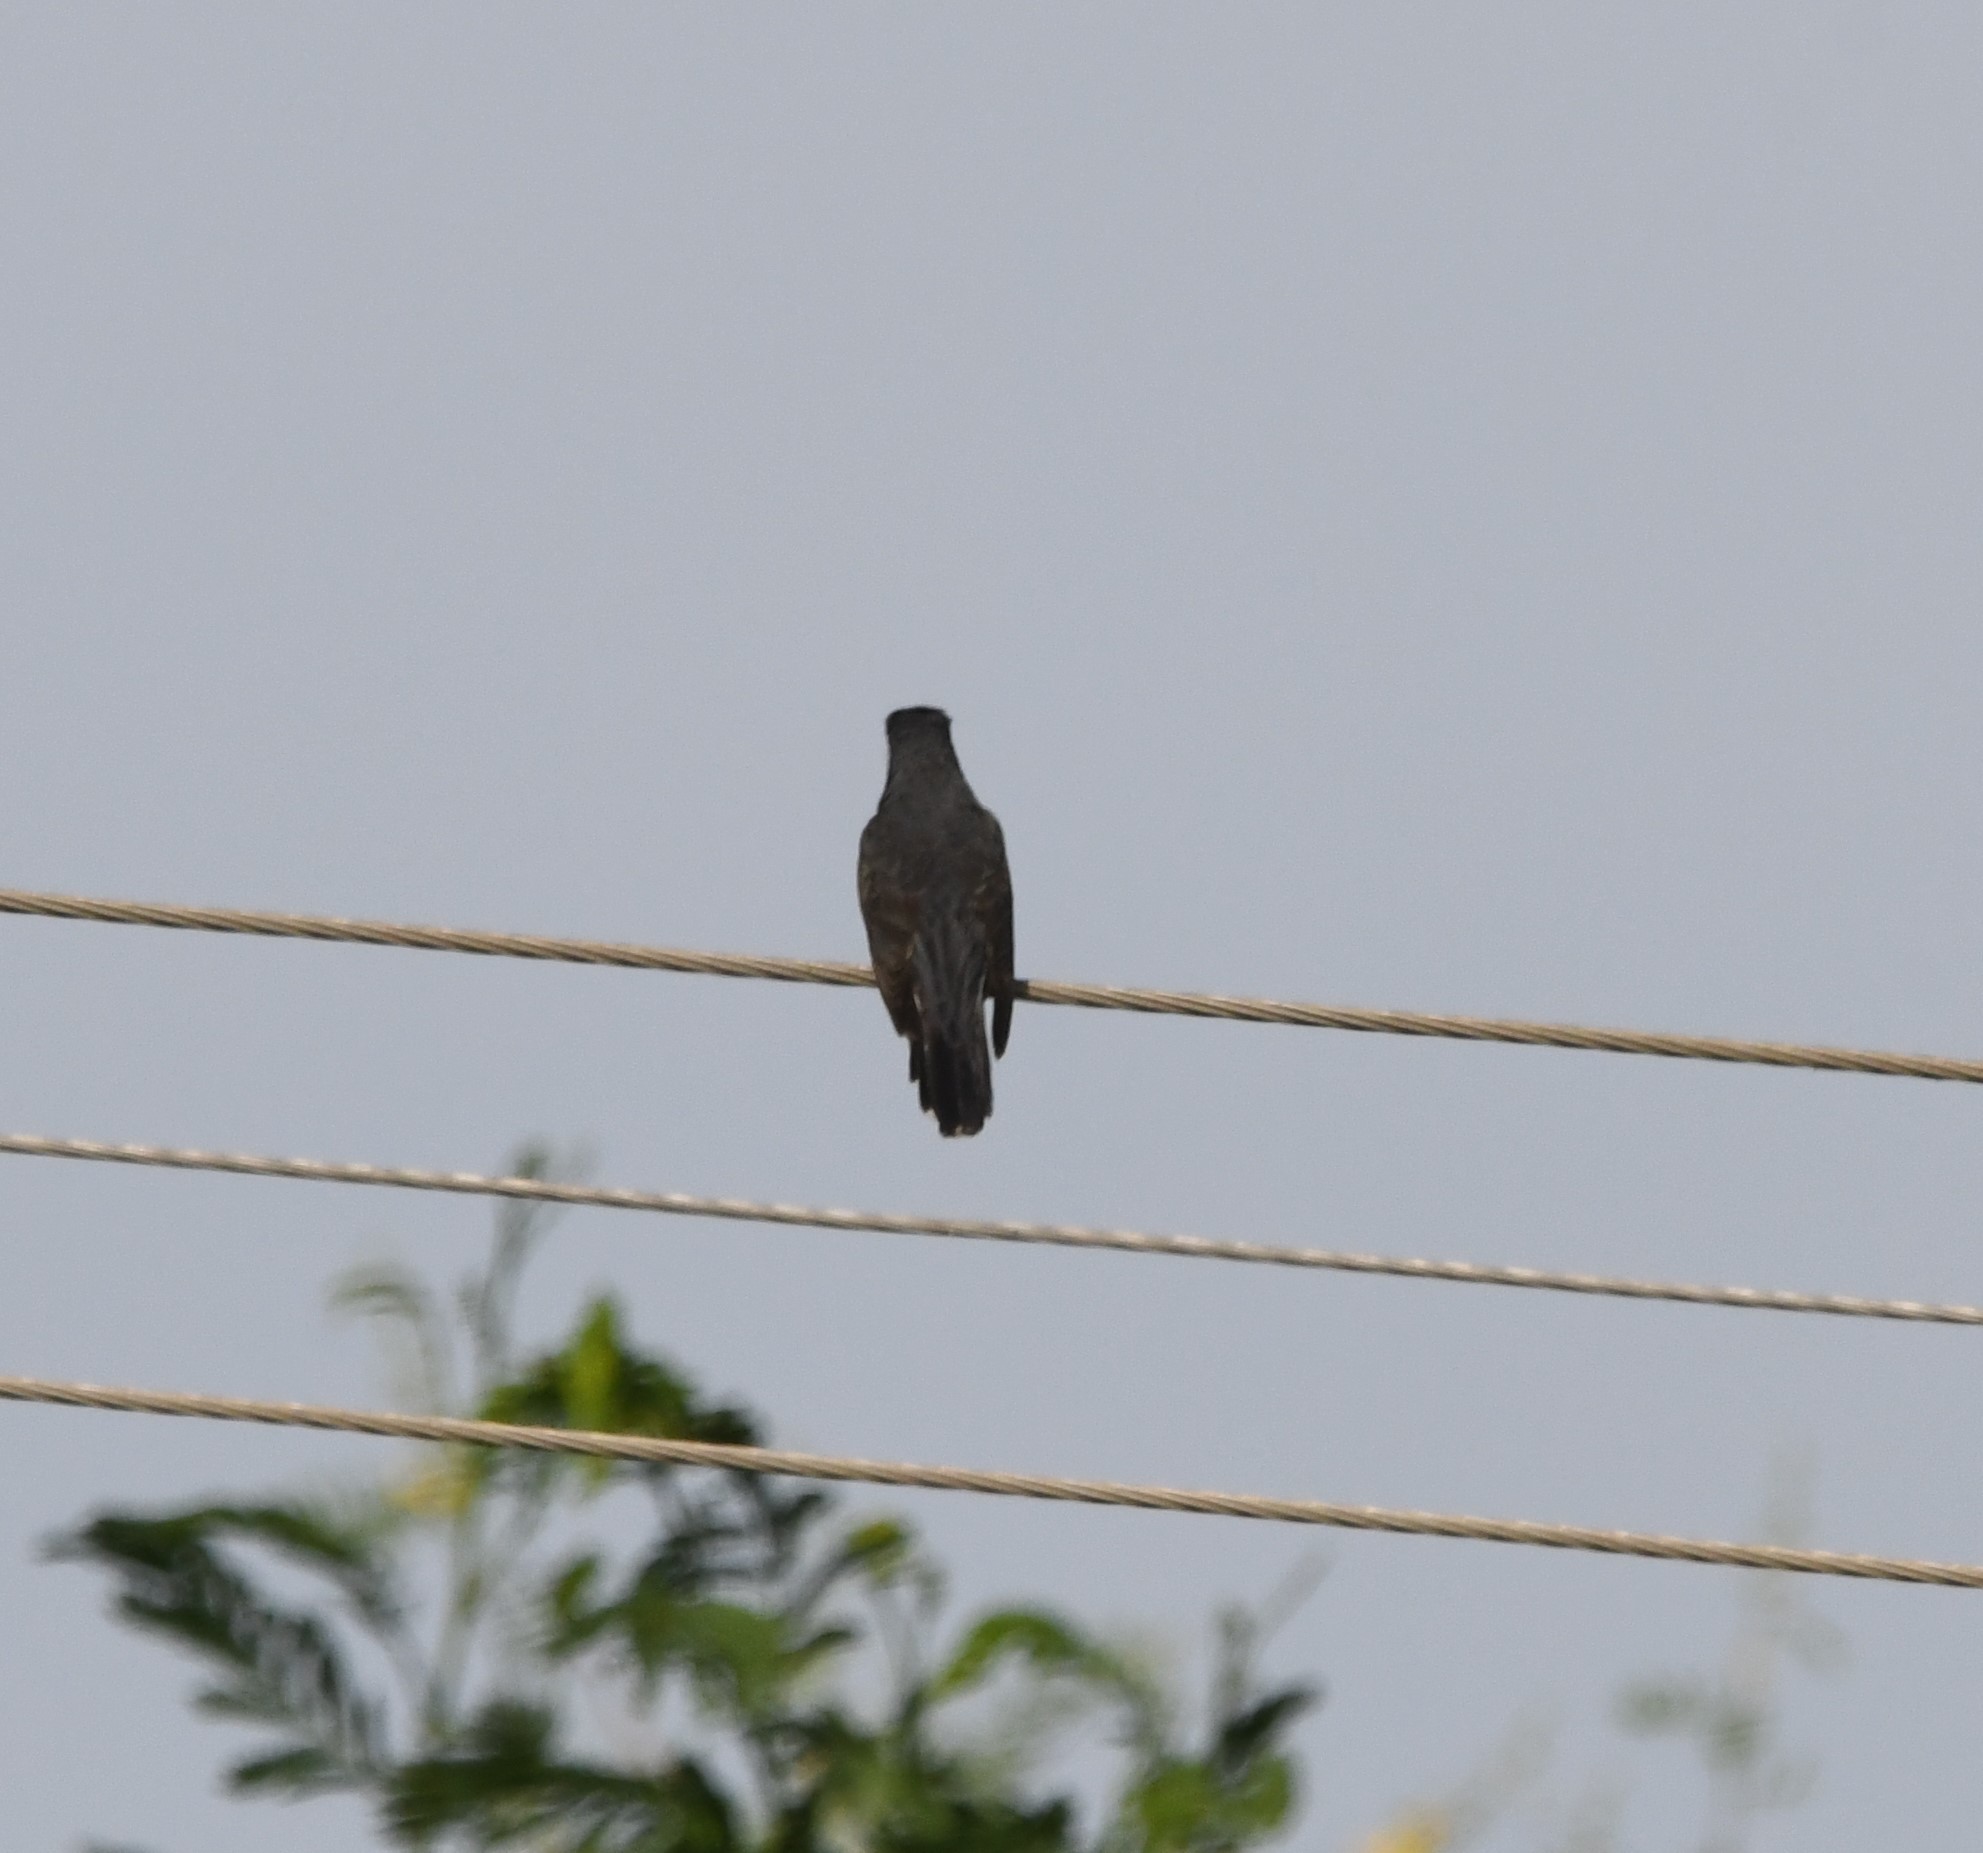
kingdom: Animalia
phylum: Chordata
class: Aves
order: Cuculiformes
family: Cuculidae
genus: Cacomantis
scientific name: Cacomantis passerinus
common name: Grey-bellied cuckoo
